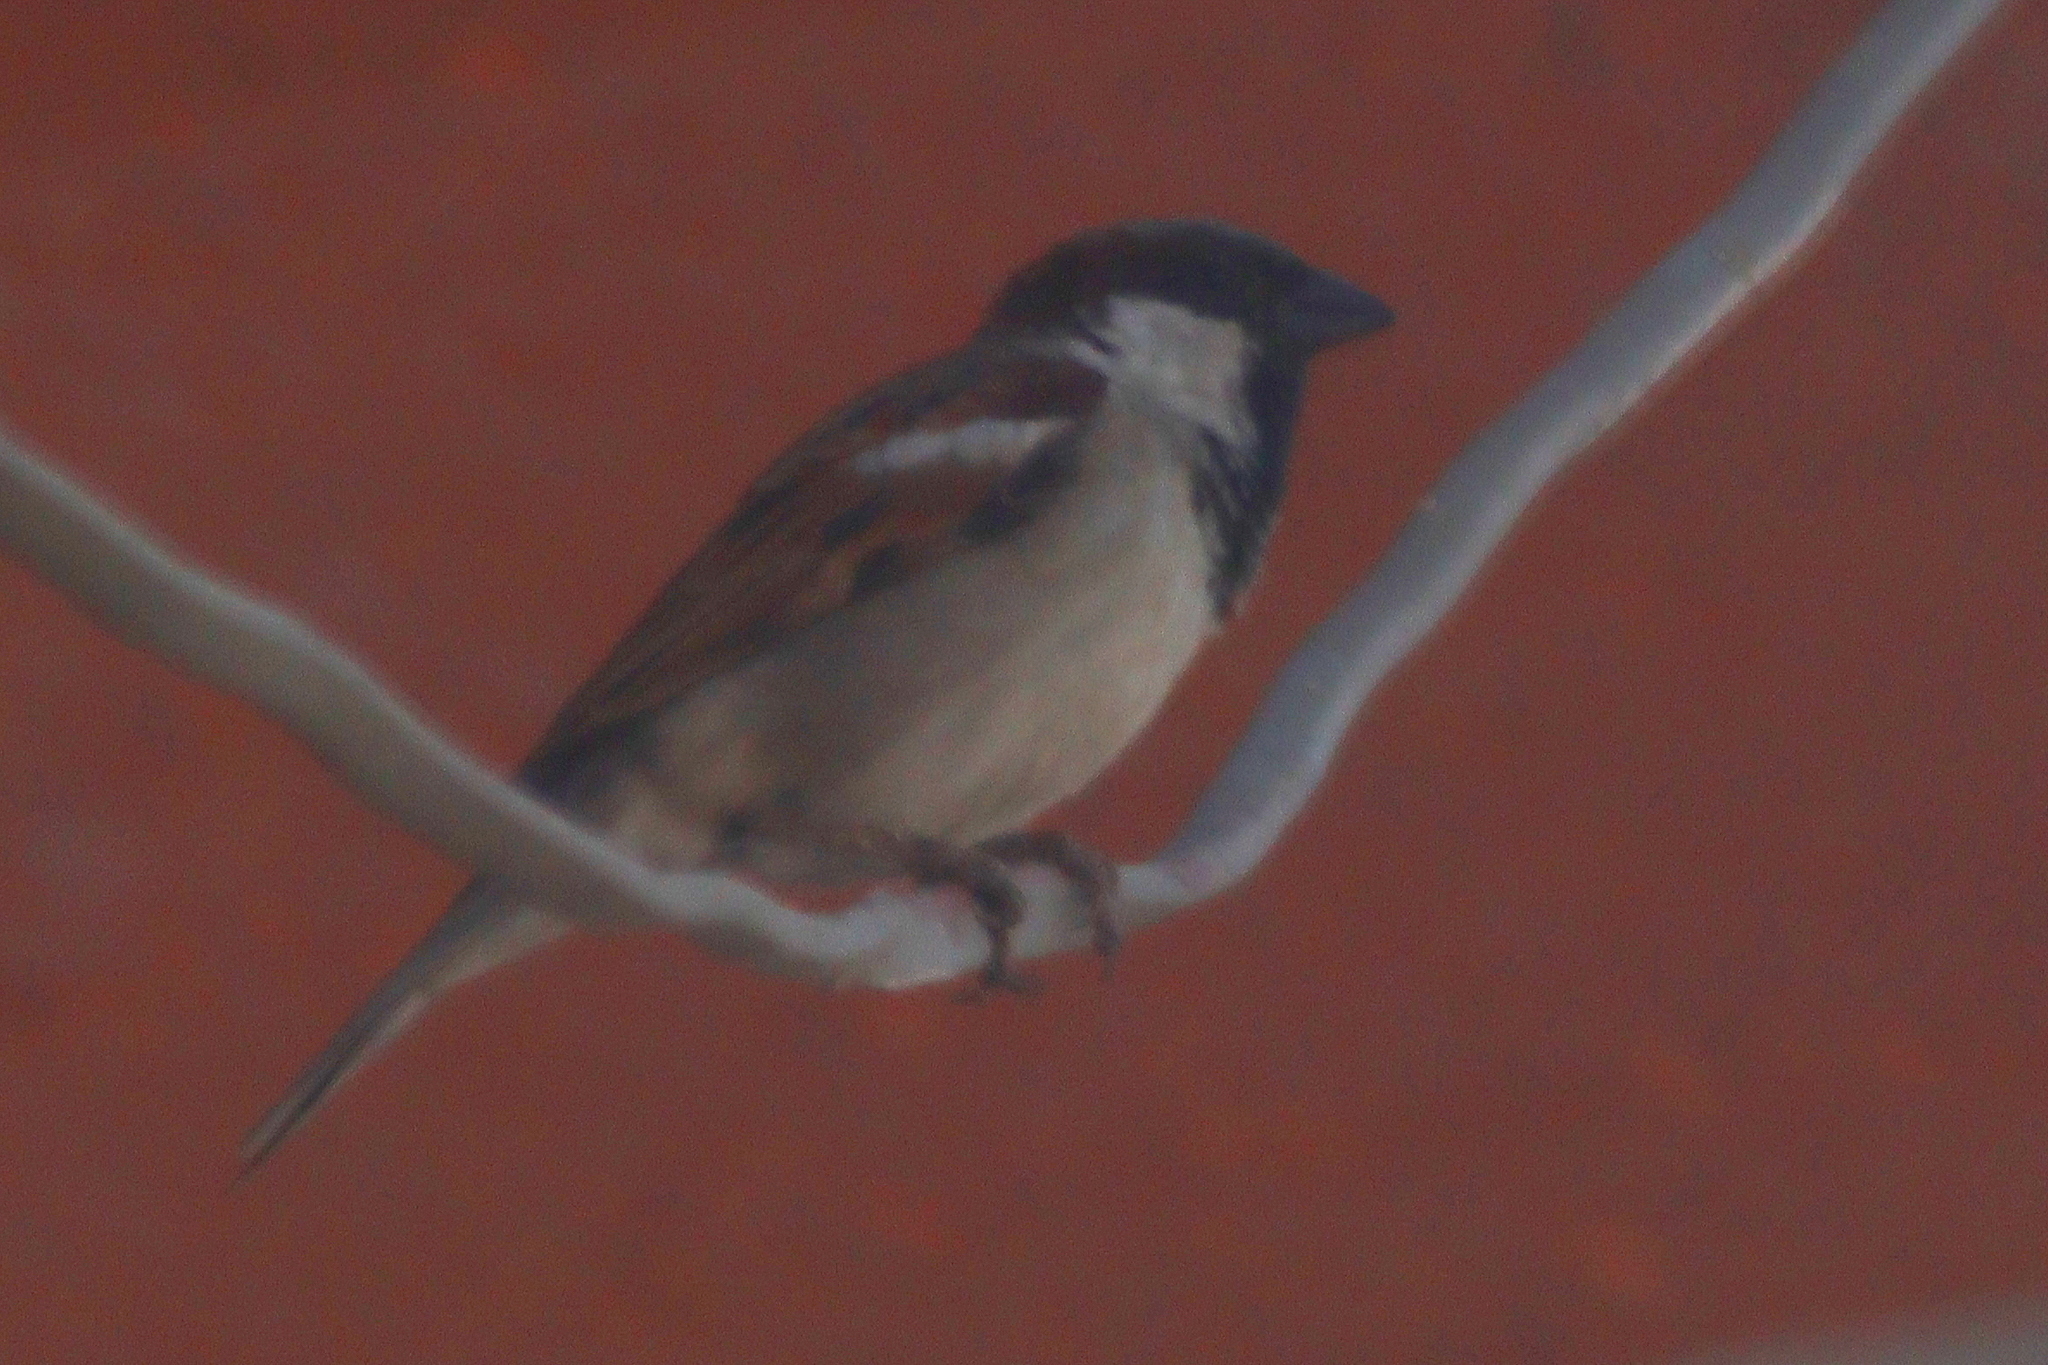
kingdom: Animalia
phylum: Chordata
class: Aves
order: Passeriformes
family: Passeridae
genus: Passer
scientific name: Passer domesticus
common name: House sparrow
